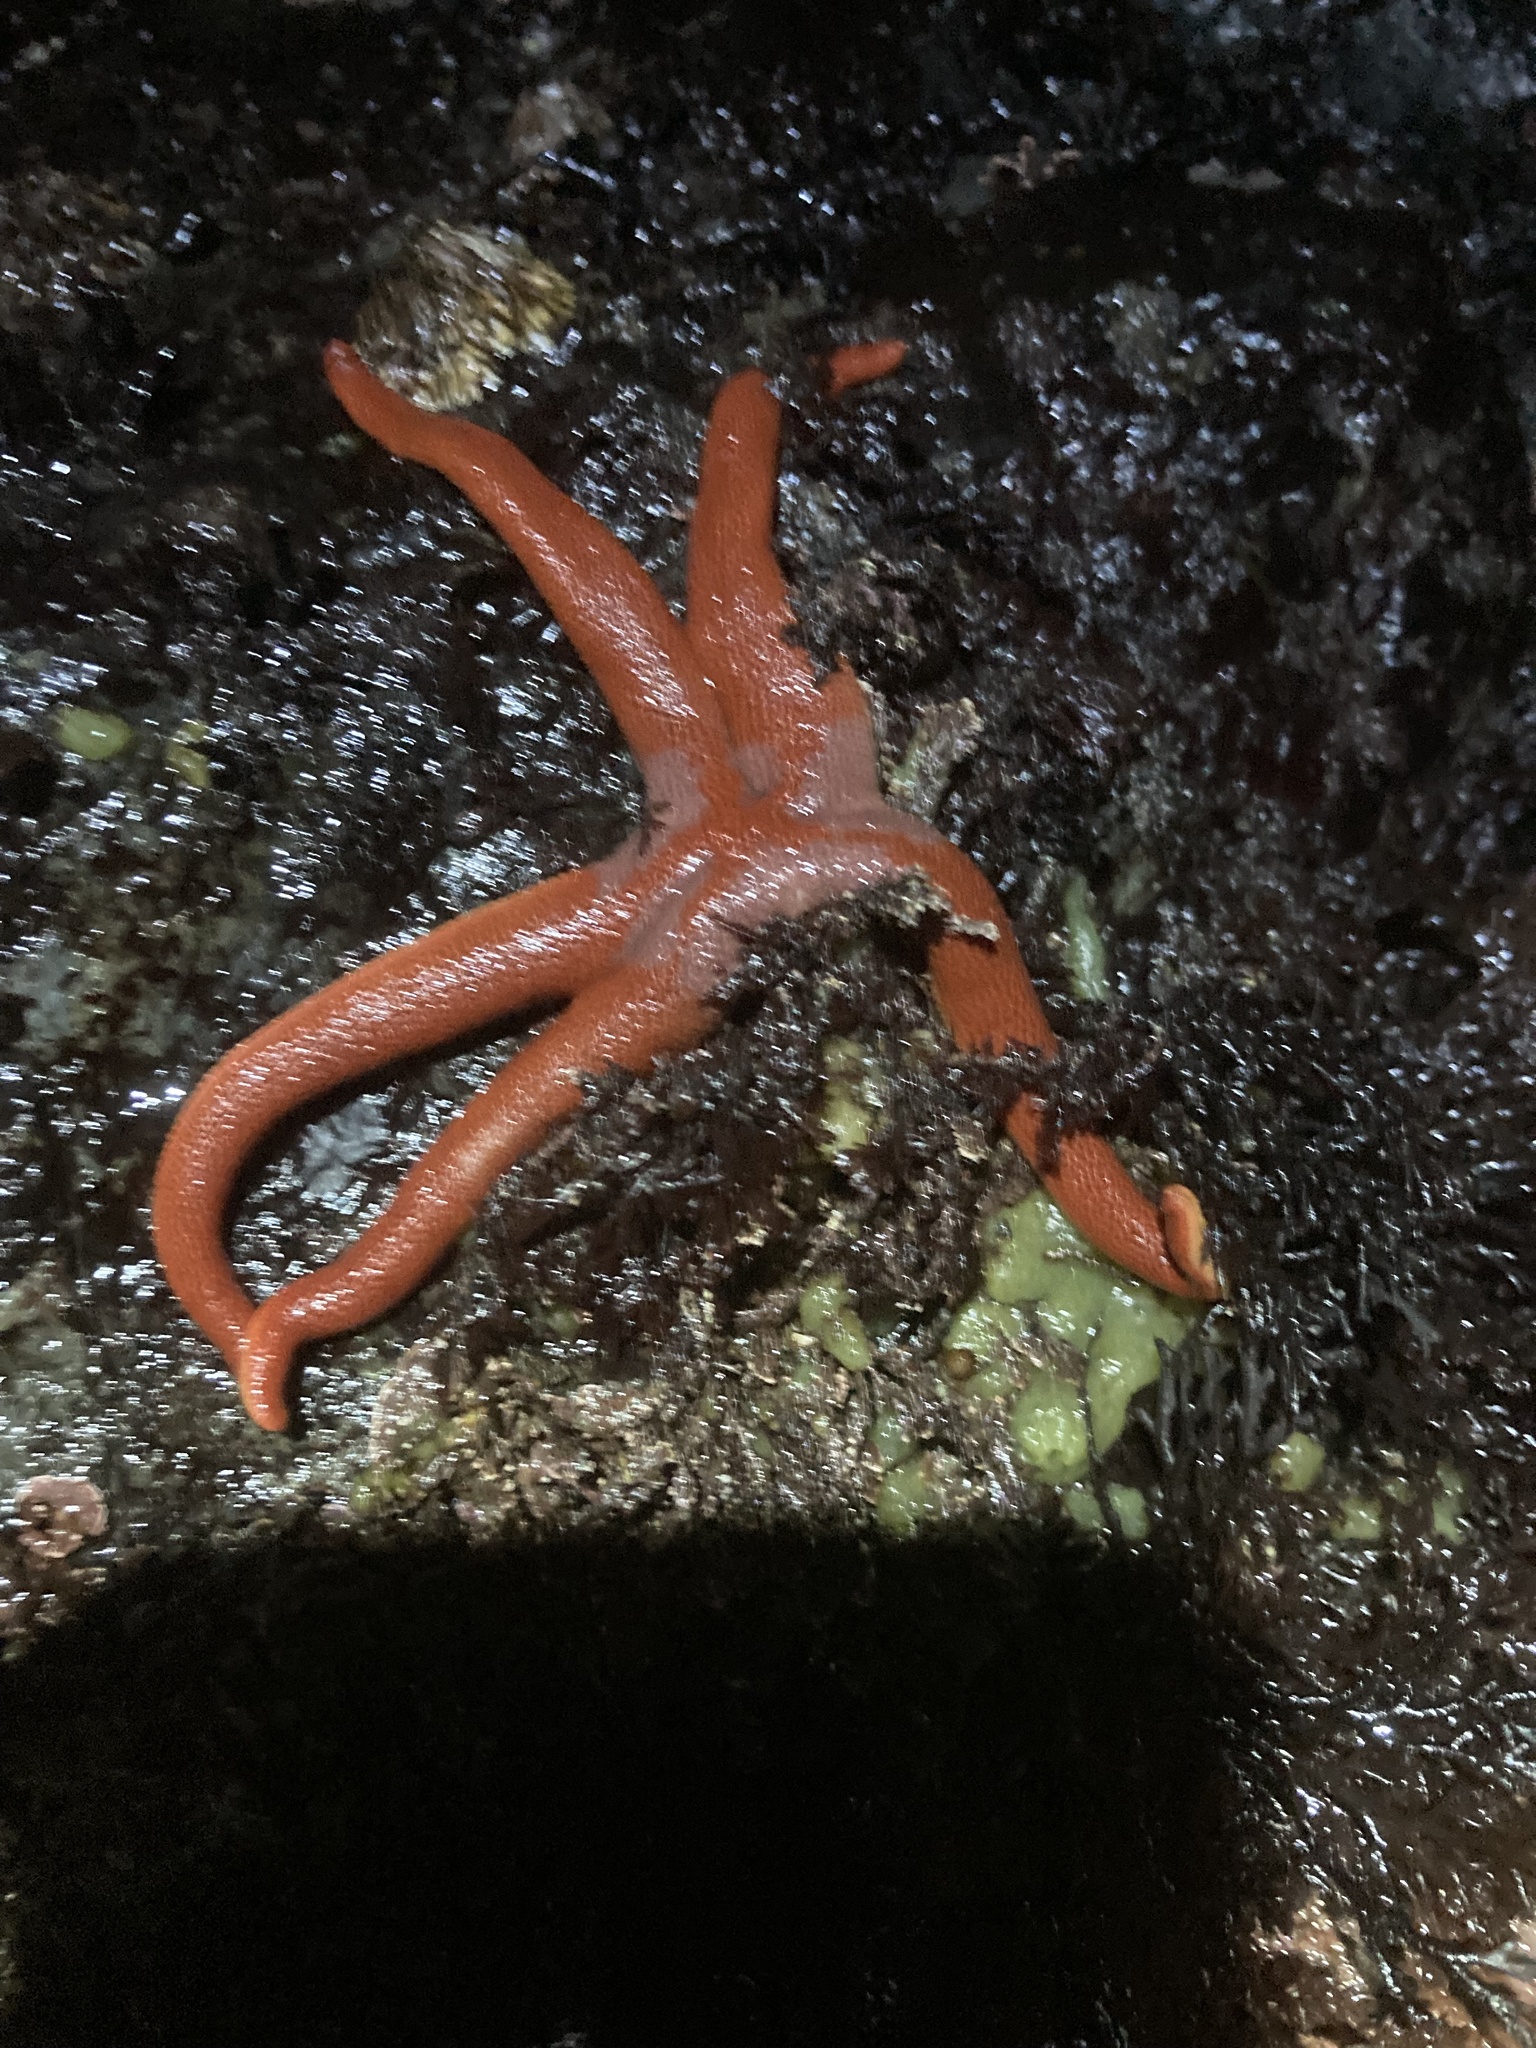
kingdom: Animalia
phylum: Echinodermata
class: Asteroidea
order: Spinulosida
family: Echinasteridae
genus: Henricia
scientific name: Henricia
